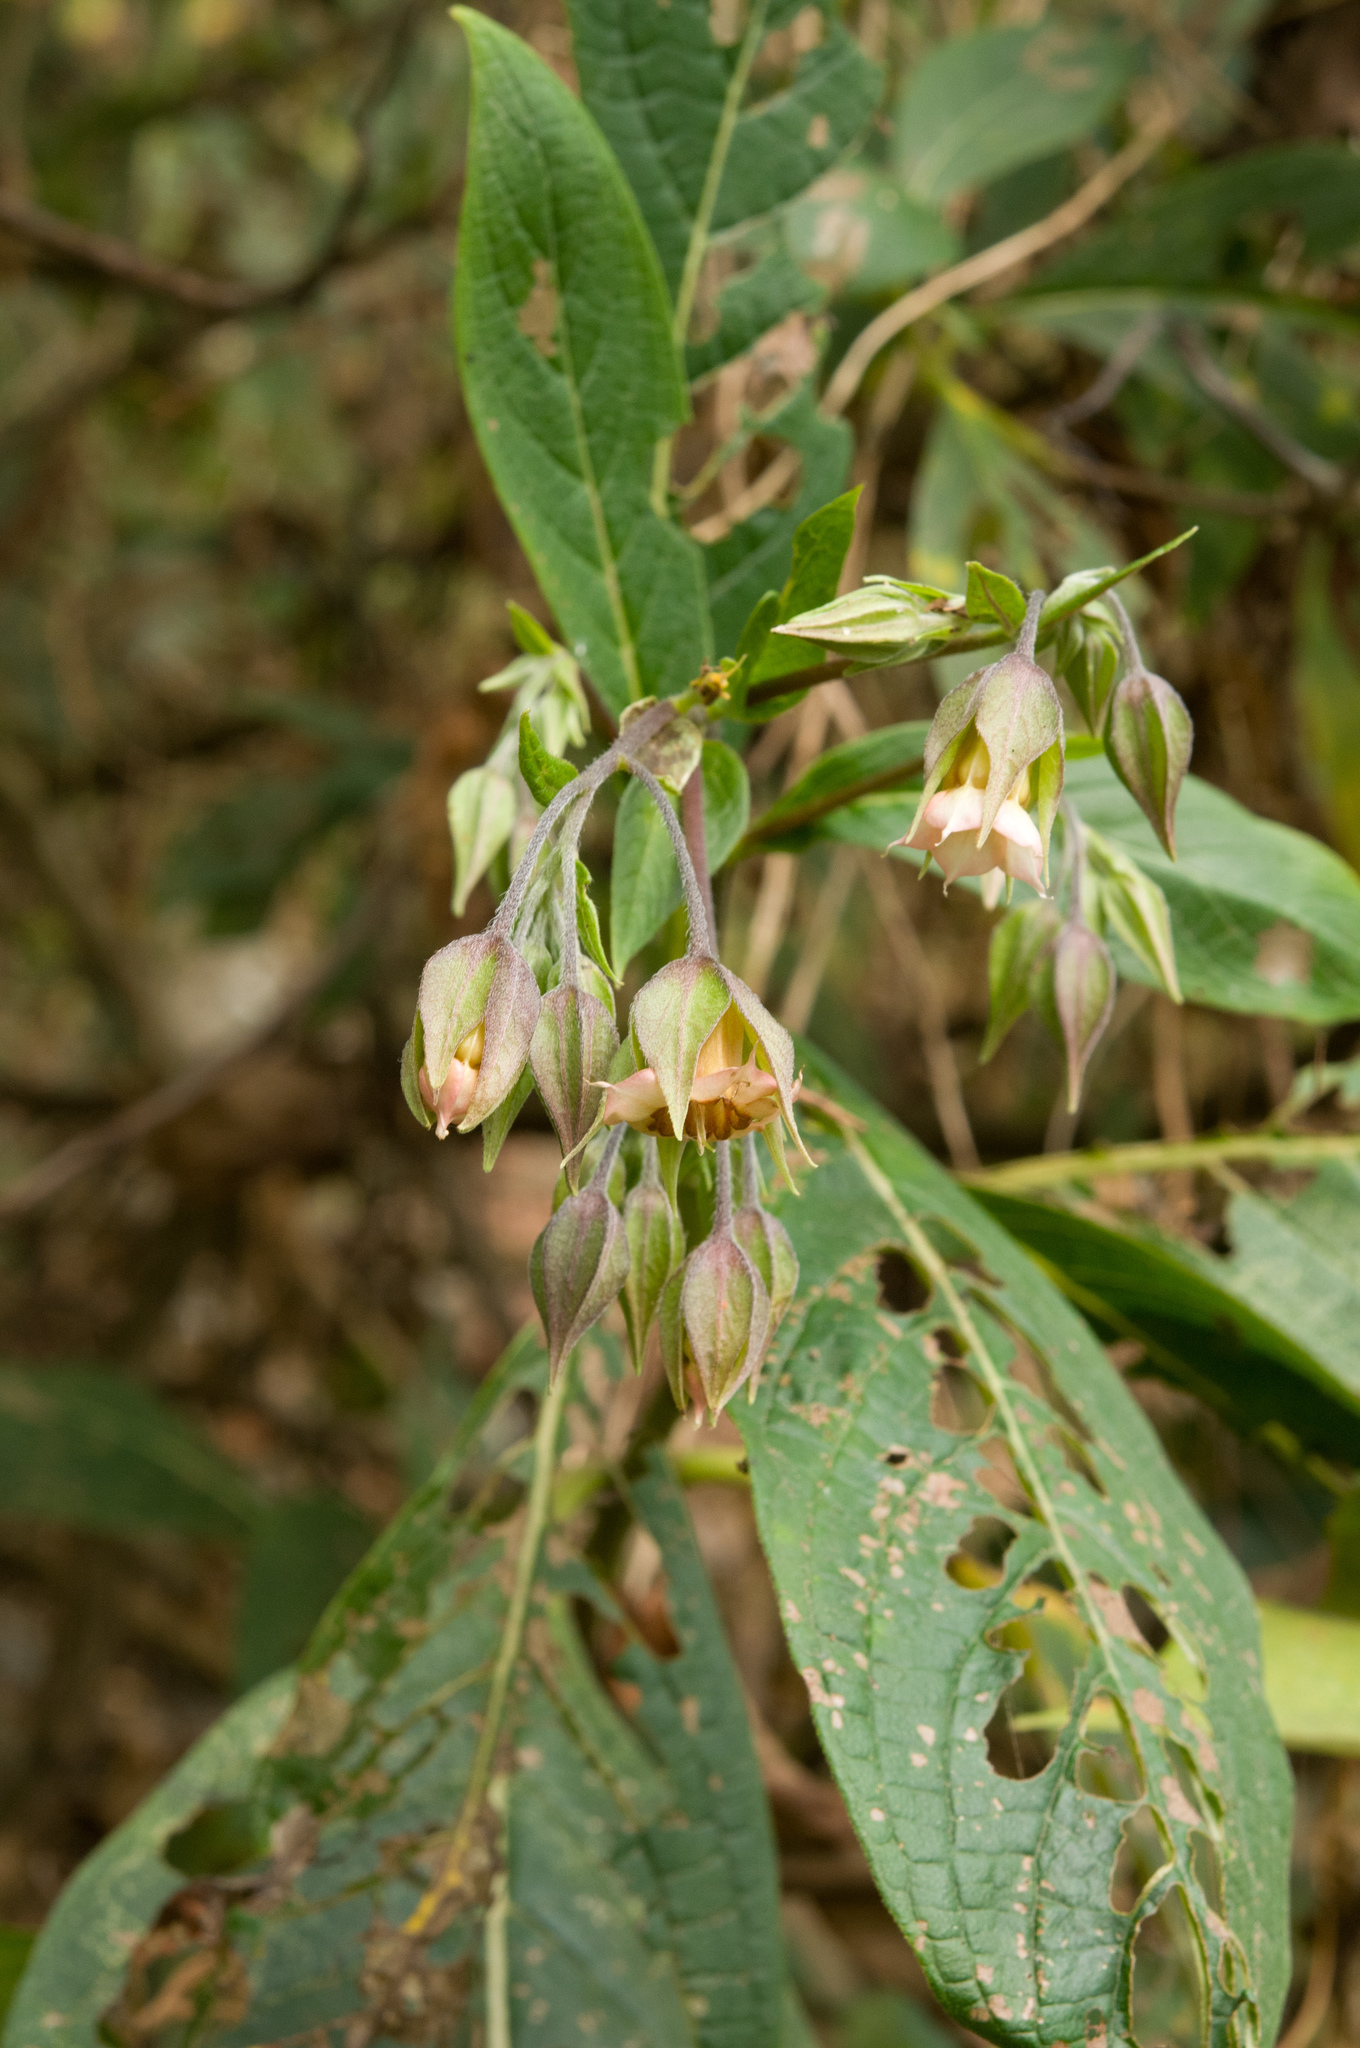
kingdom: Plantae
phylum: Tracheophyta
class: Magnoliopsida
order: Boraginales
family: Boraginaceae
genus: Trichodesma
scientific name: Trichodesma calycosum
